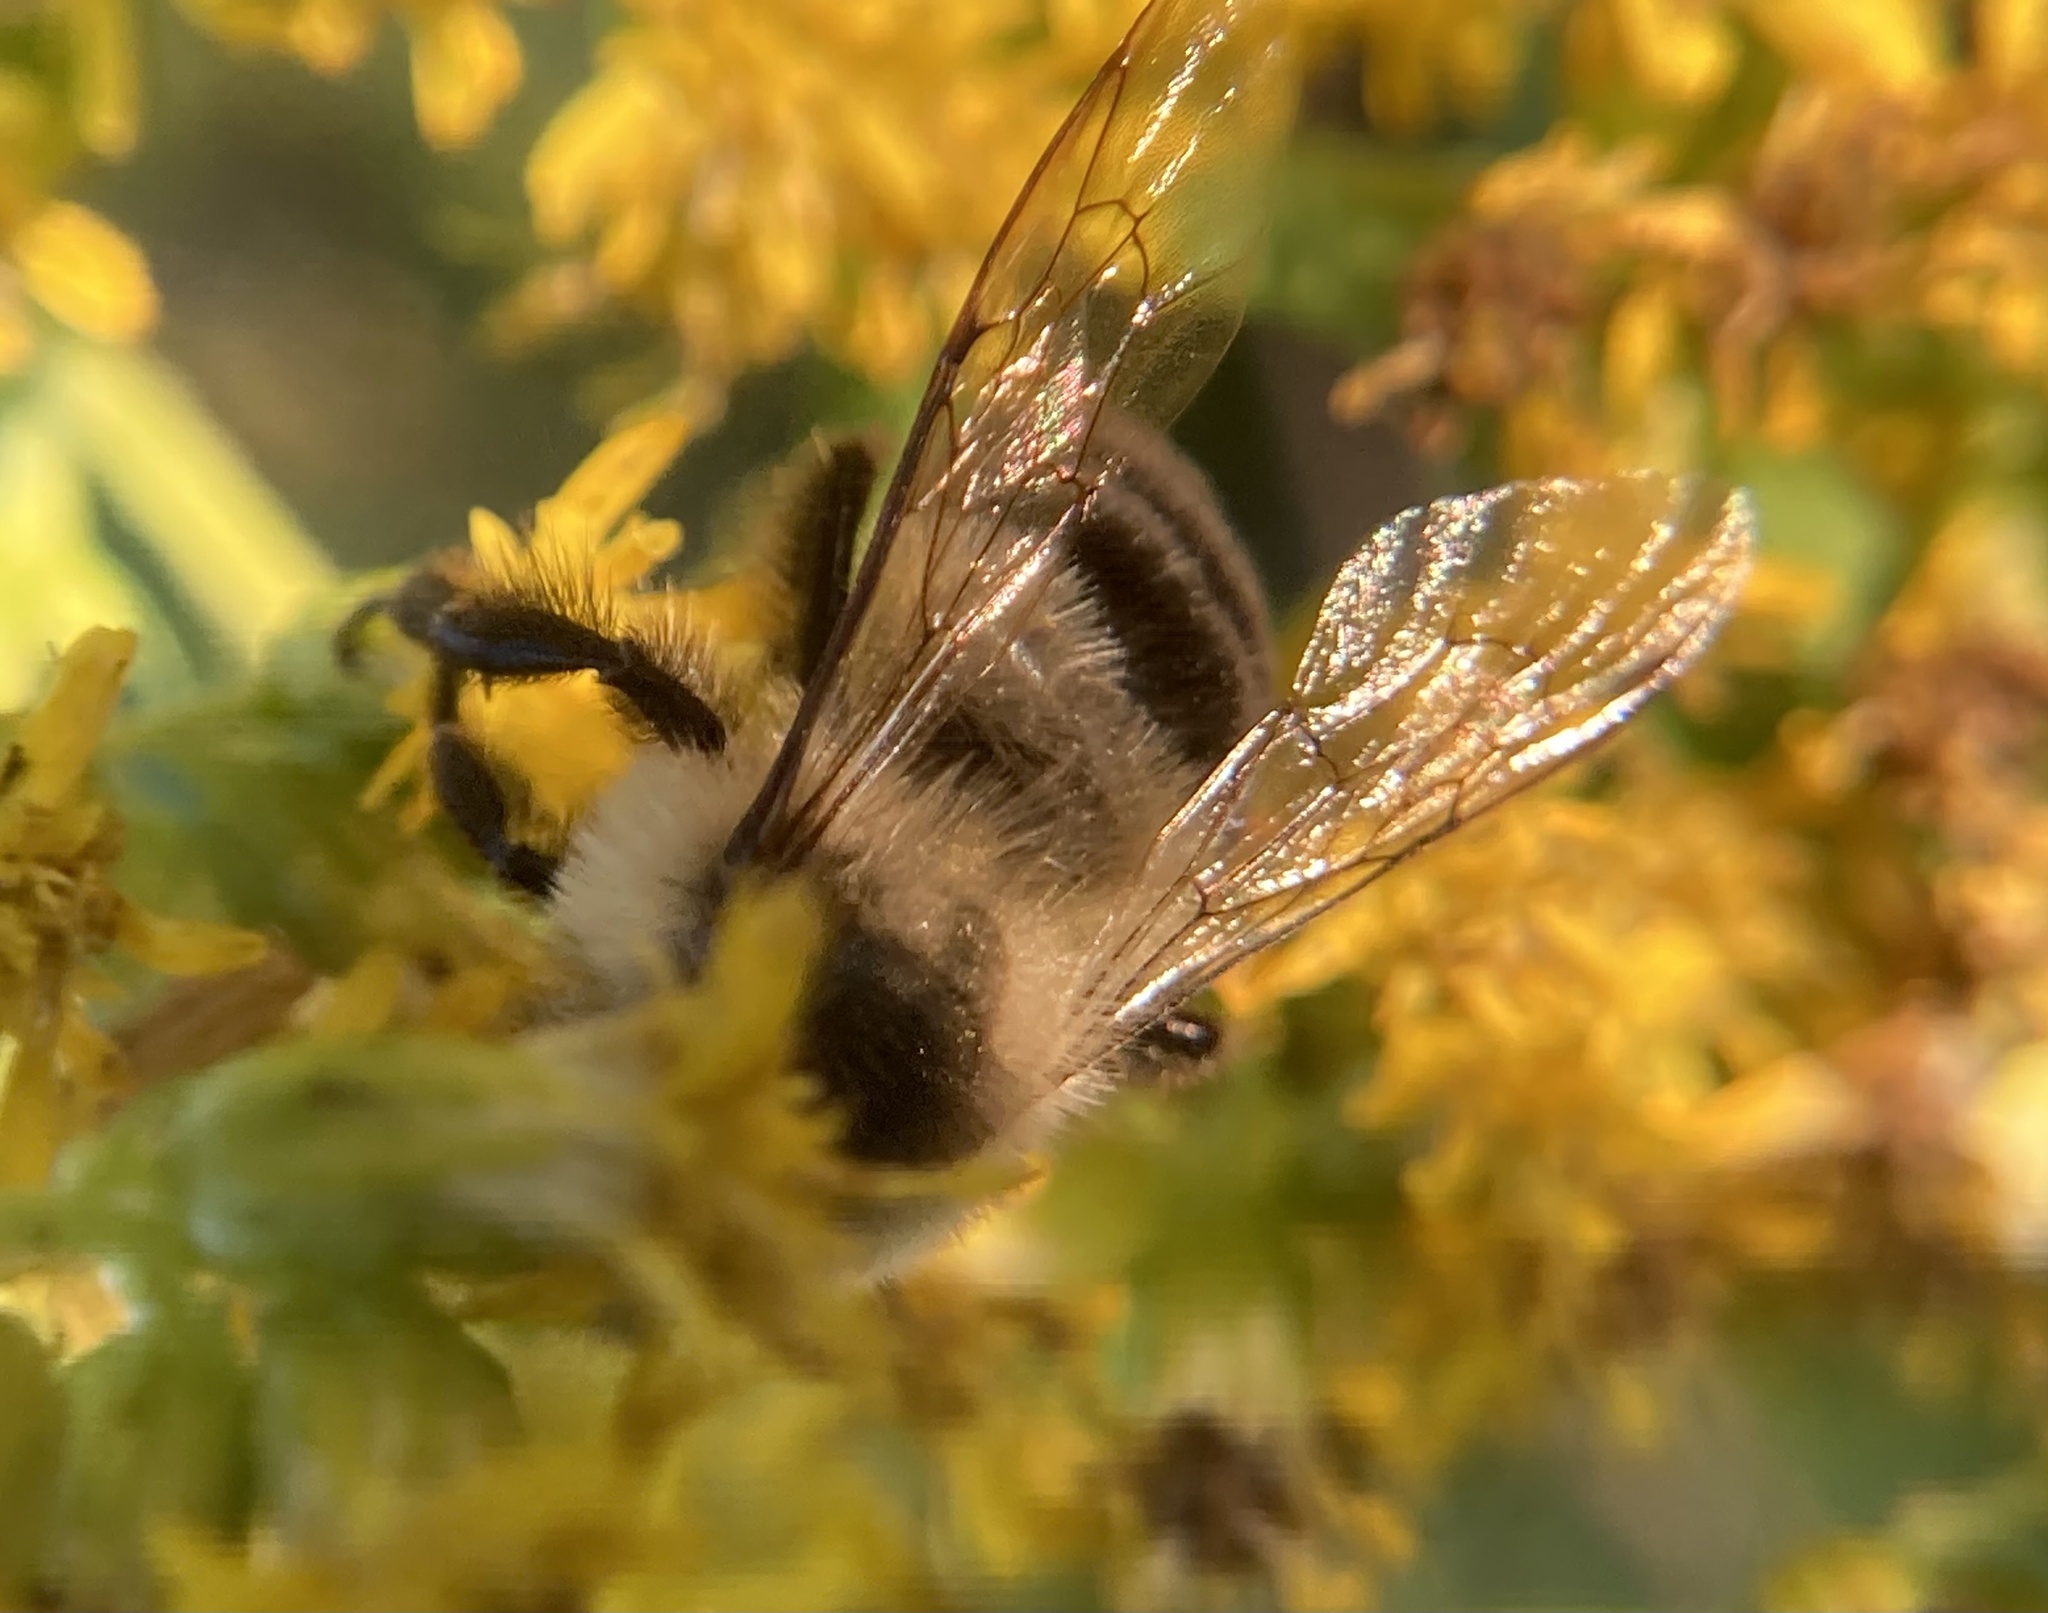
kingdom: Animalia
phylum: Arthropoda
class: Insecta
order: Hymenoptera
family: Apidae
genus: Bombus
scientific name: Bombus impatiens
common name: Common eastern bumble bee
